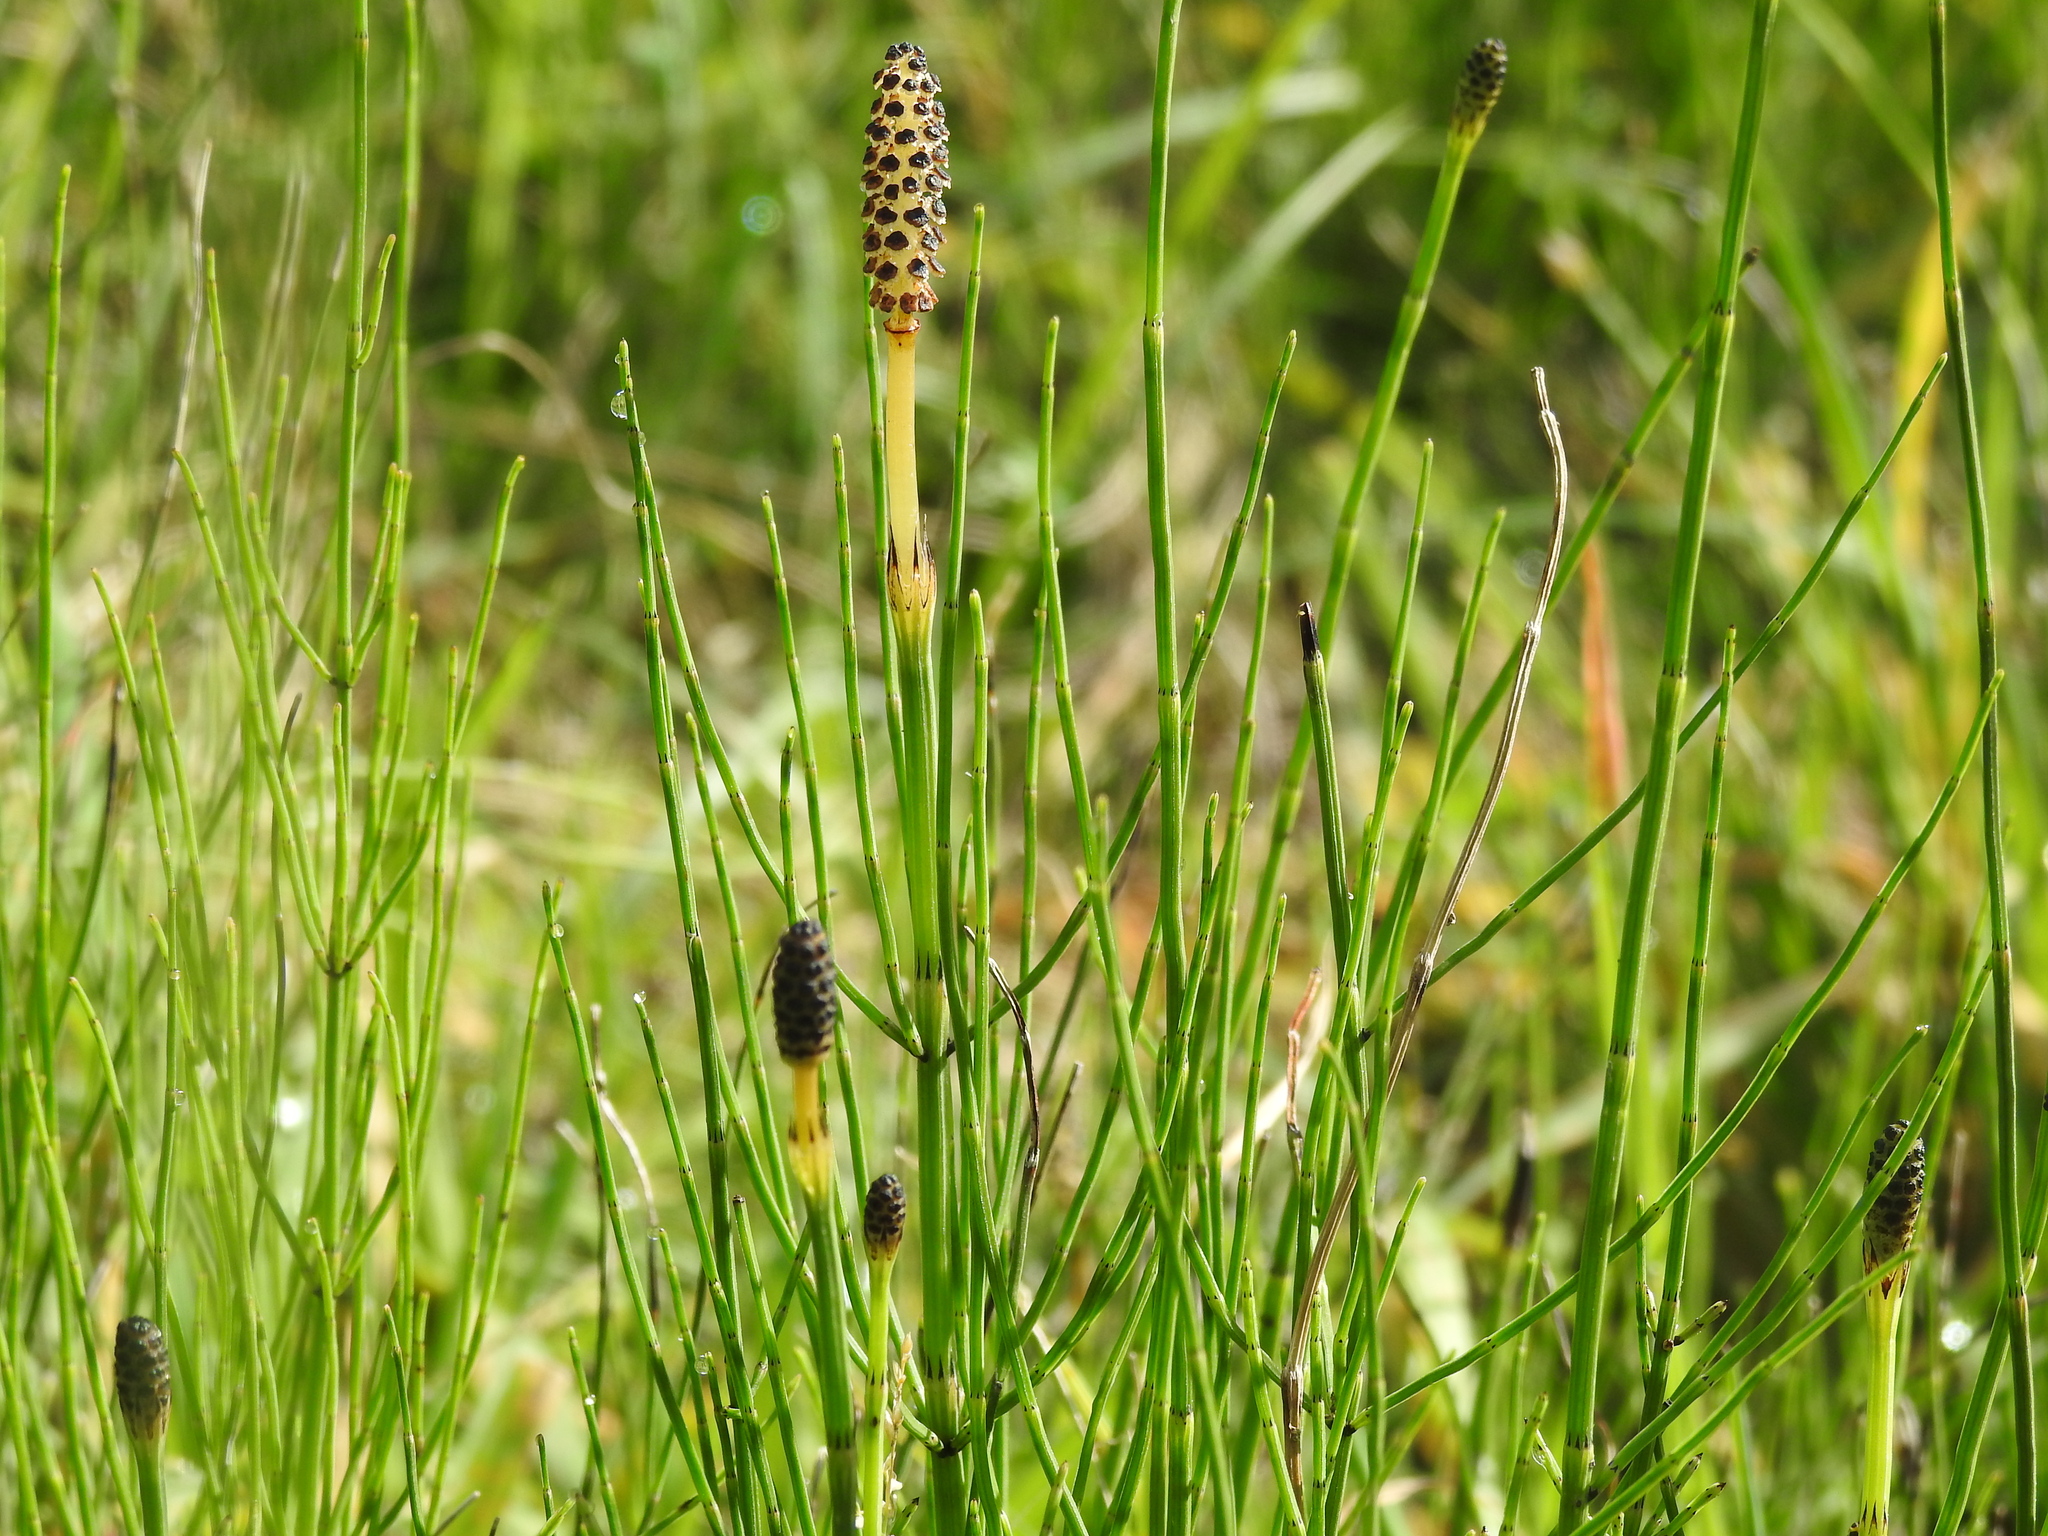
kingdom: Plantae
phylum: Tracheophyta
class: Polypodiopsida
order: Equisetales
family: Equisetaceae
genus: Equisetum
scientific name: Equisetum palustre
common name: Marsh horsetail
